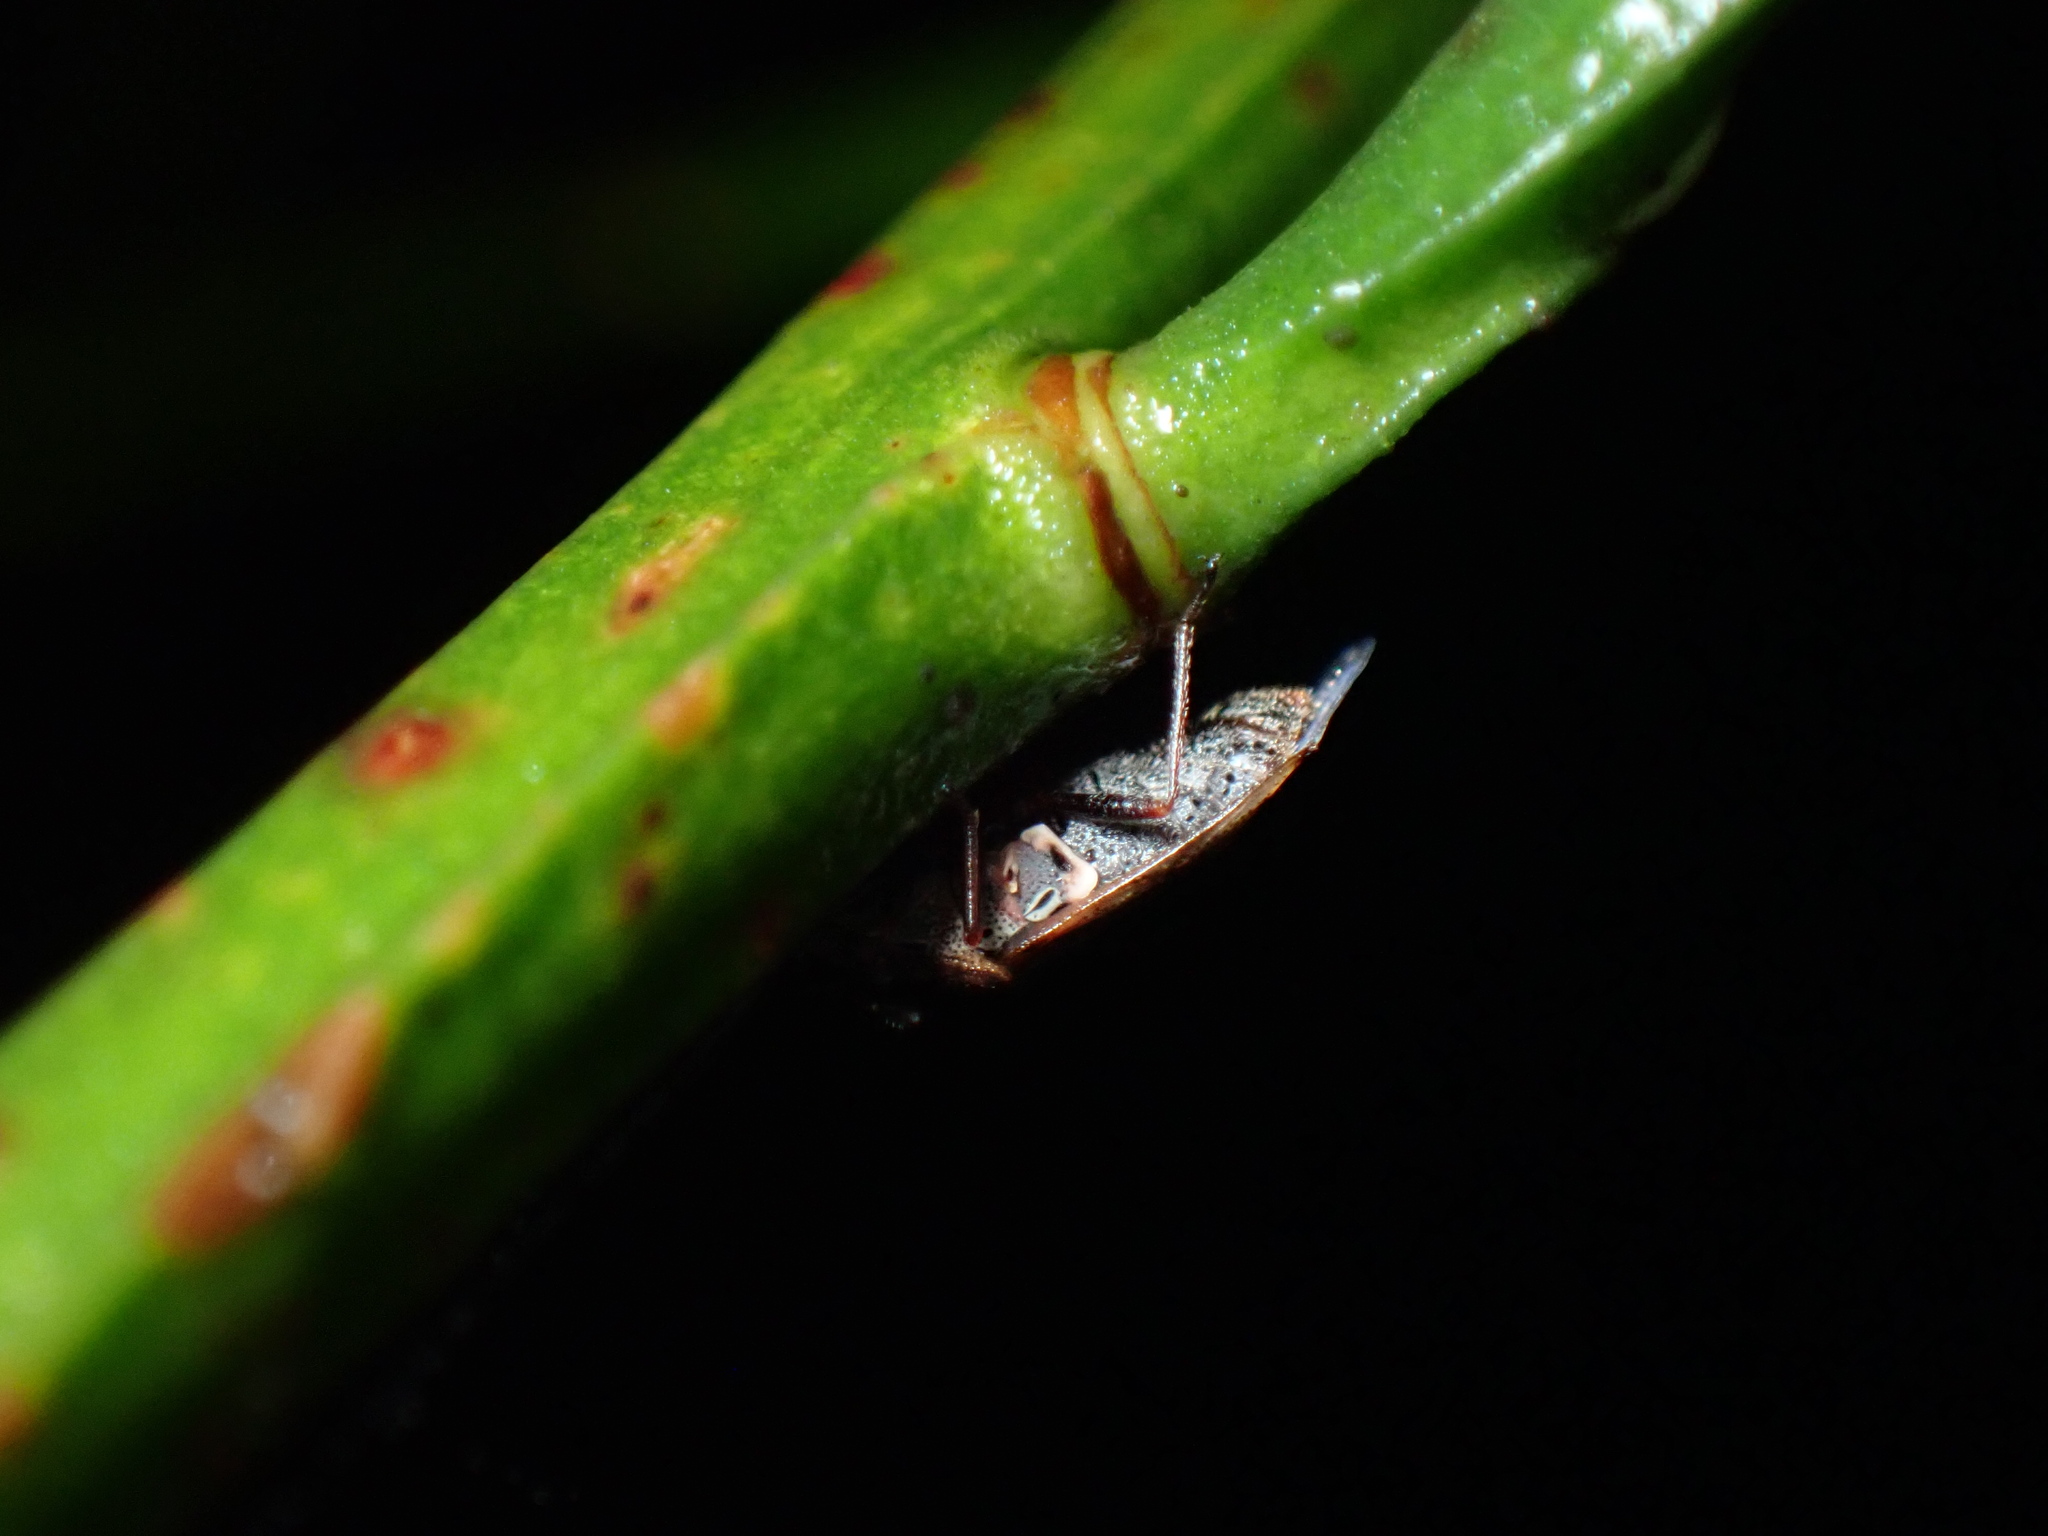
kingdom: Animalia
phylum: Arthropoda
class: Insecta
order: Hemiptera
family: Lygaeidae
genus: Kleidocerys
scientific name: Kleidocerys resedae
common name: Birch catkin bug
